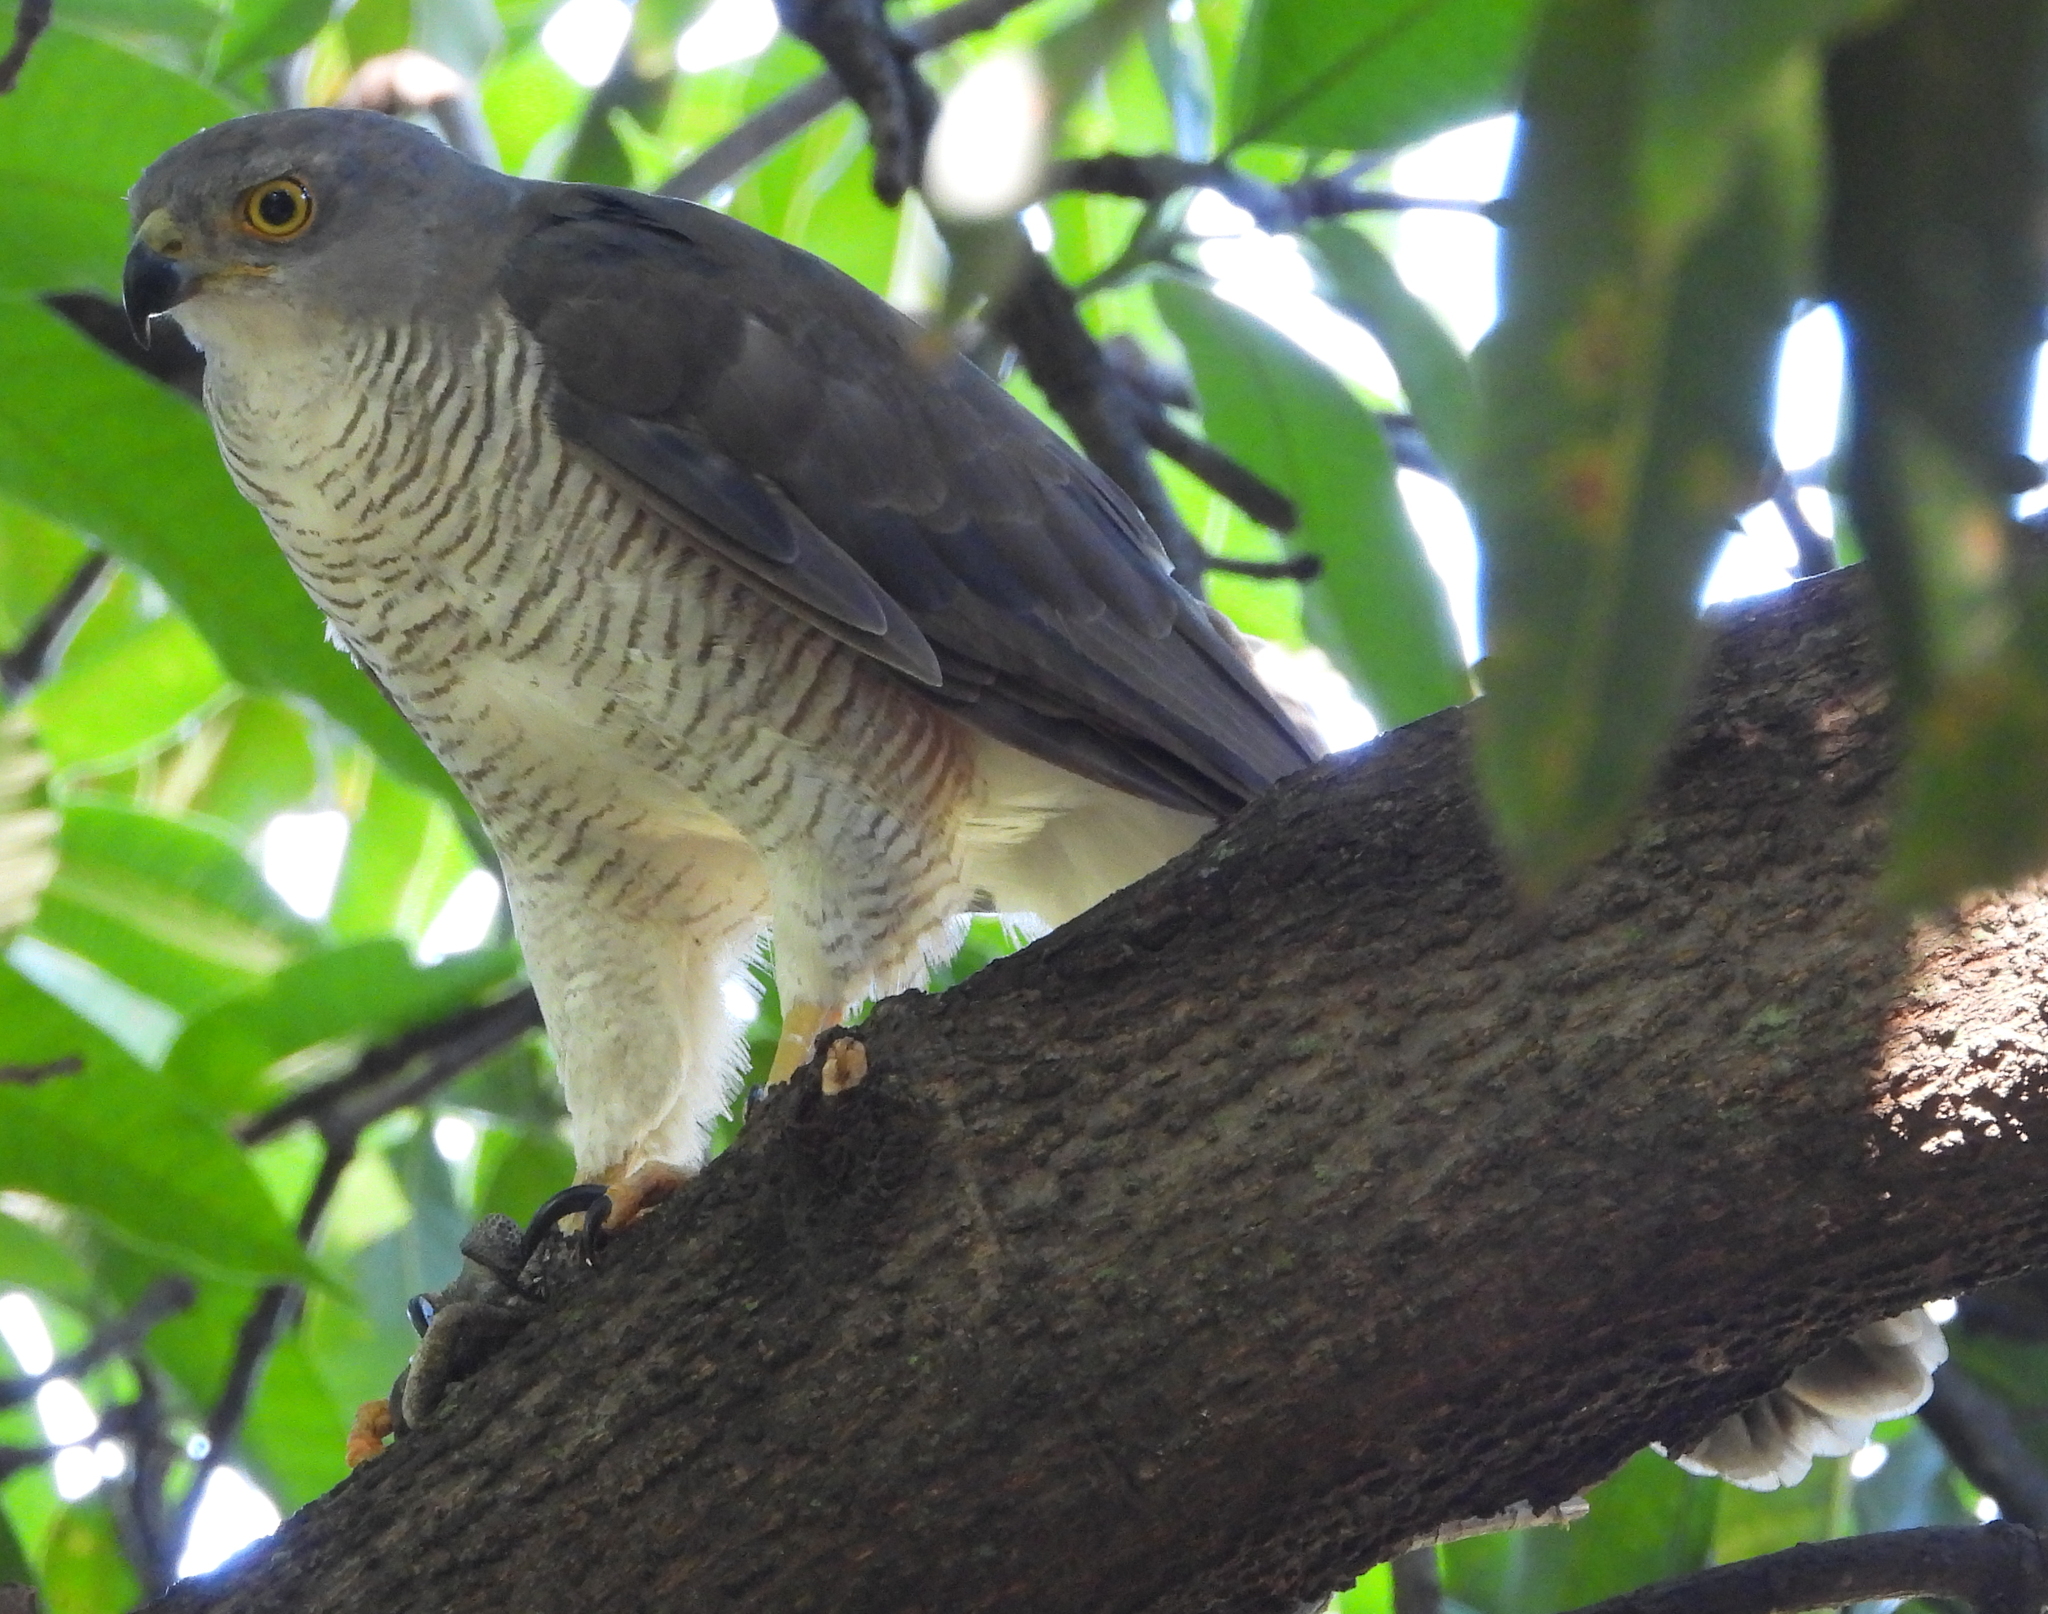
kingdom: Animalia
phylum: Chordata
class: Aves
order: Accipitriformes
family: Accipitridae
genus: Accipiter
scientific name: Accipiter tachiro
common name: African goshawk
